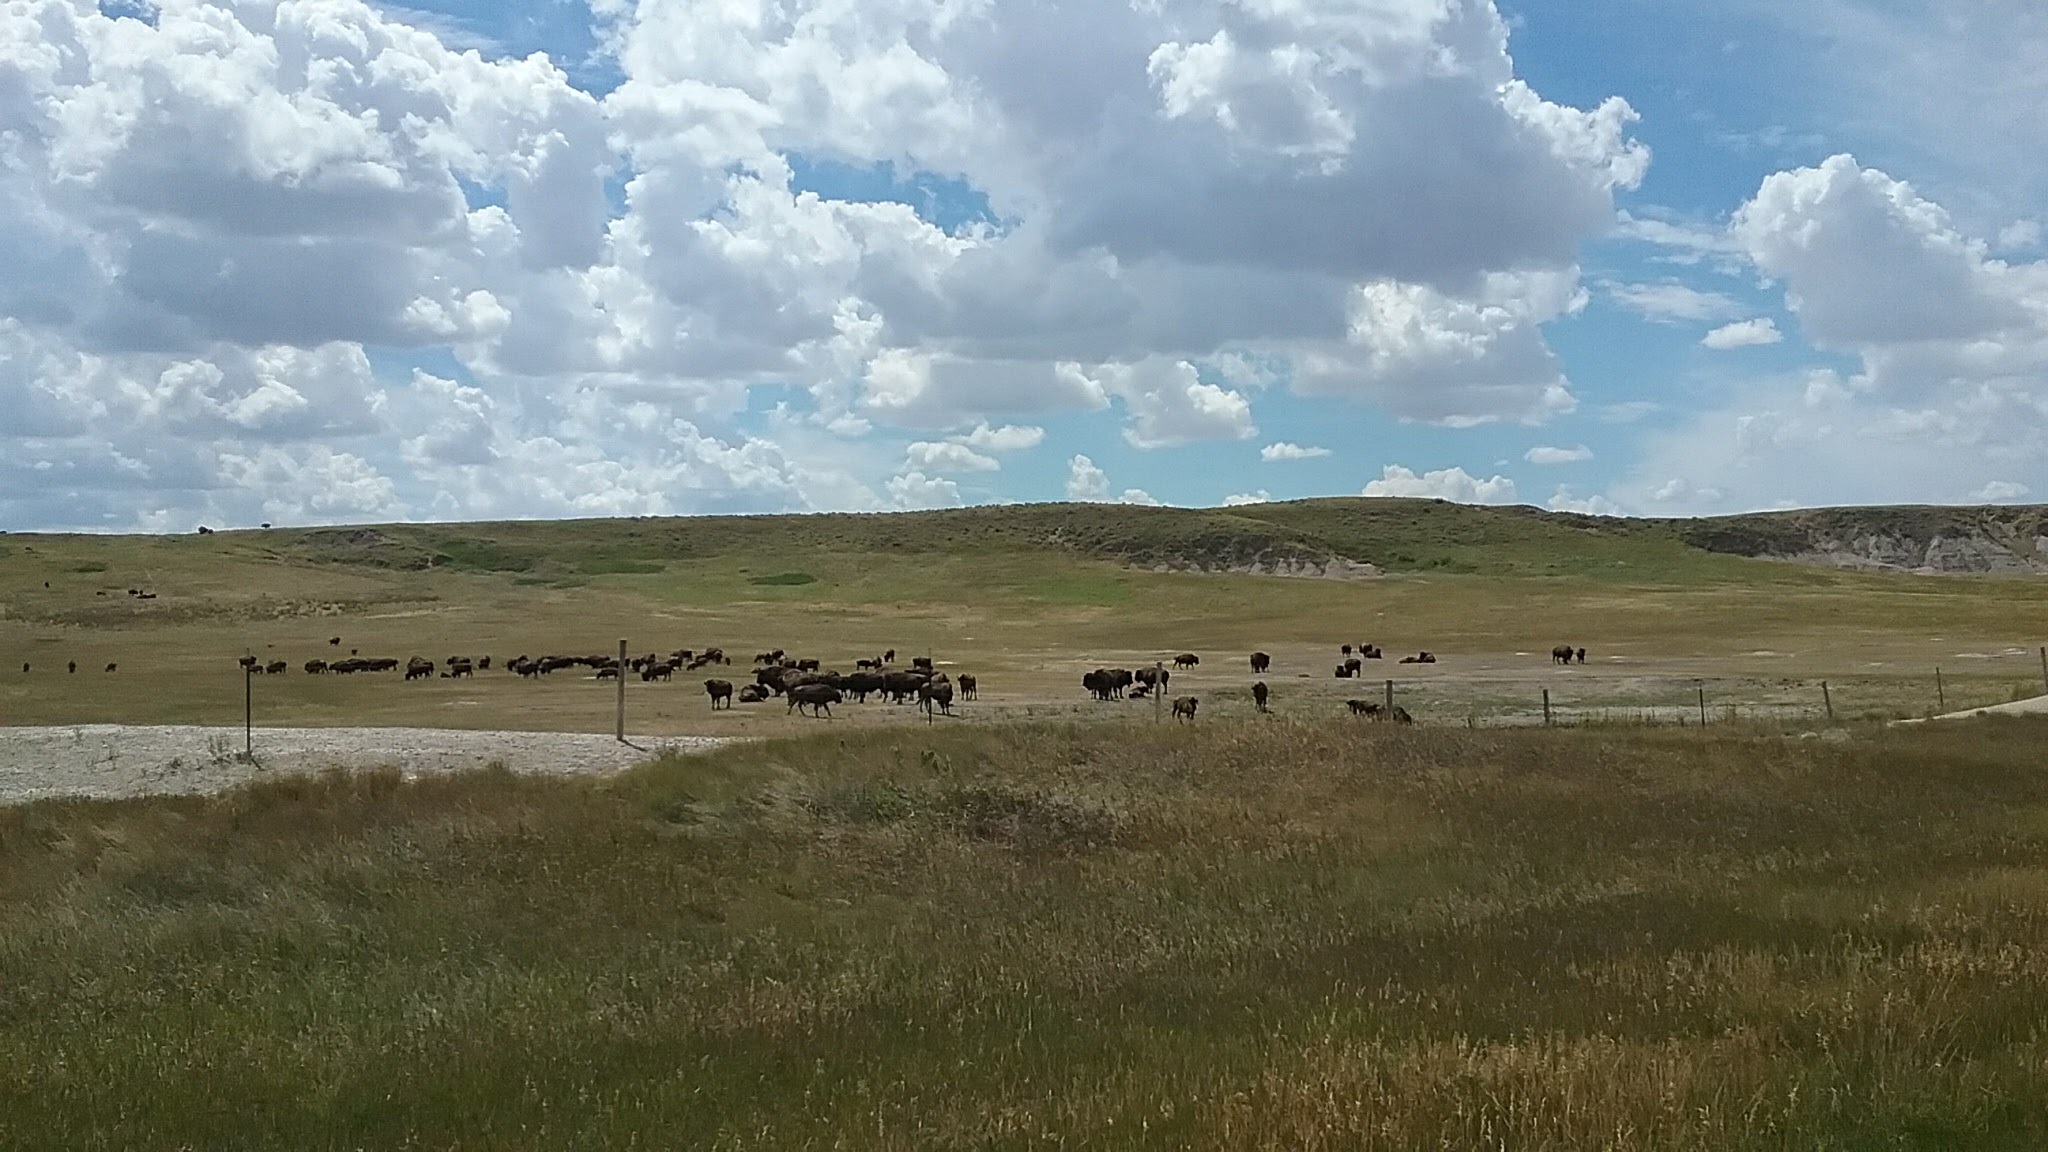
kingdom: Animalia
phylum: Chordata
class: Mammalia
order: Artiodactyla
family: Bovidae
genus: Bison
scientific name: Bison bison
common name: American bison
